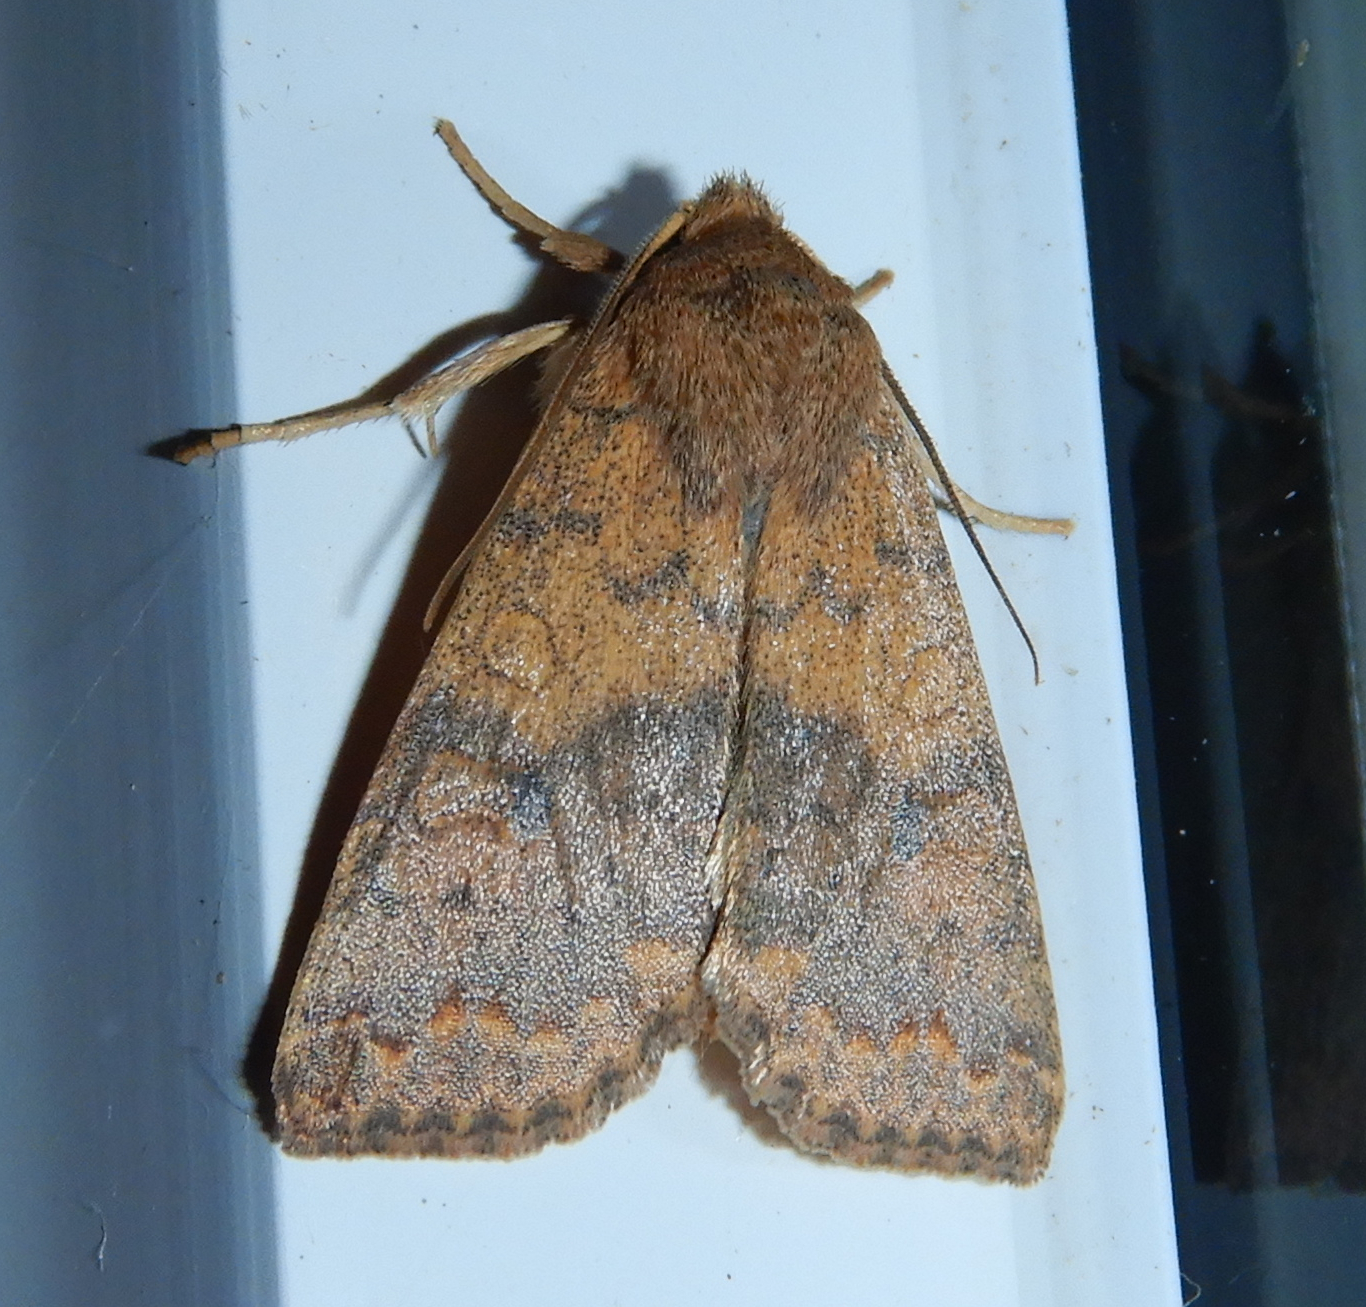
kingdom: Animalia
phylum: Arthropoda
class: Insecta
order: Lepidoptera
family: Noctuidae
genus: Agrochola
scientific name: Agrochola bicolorago
